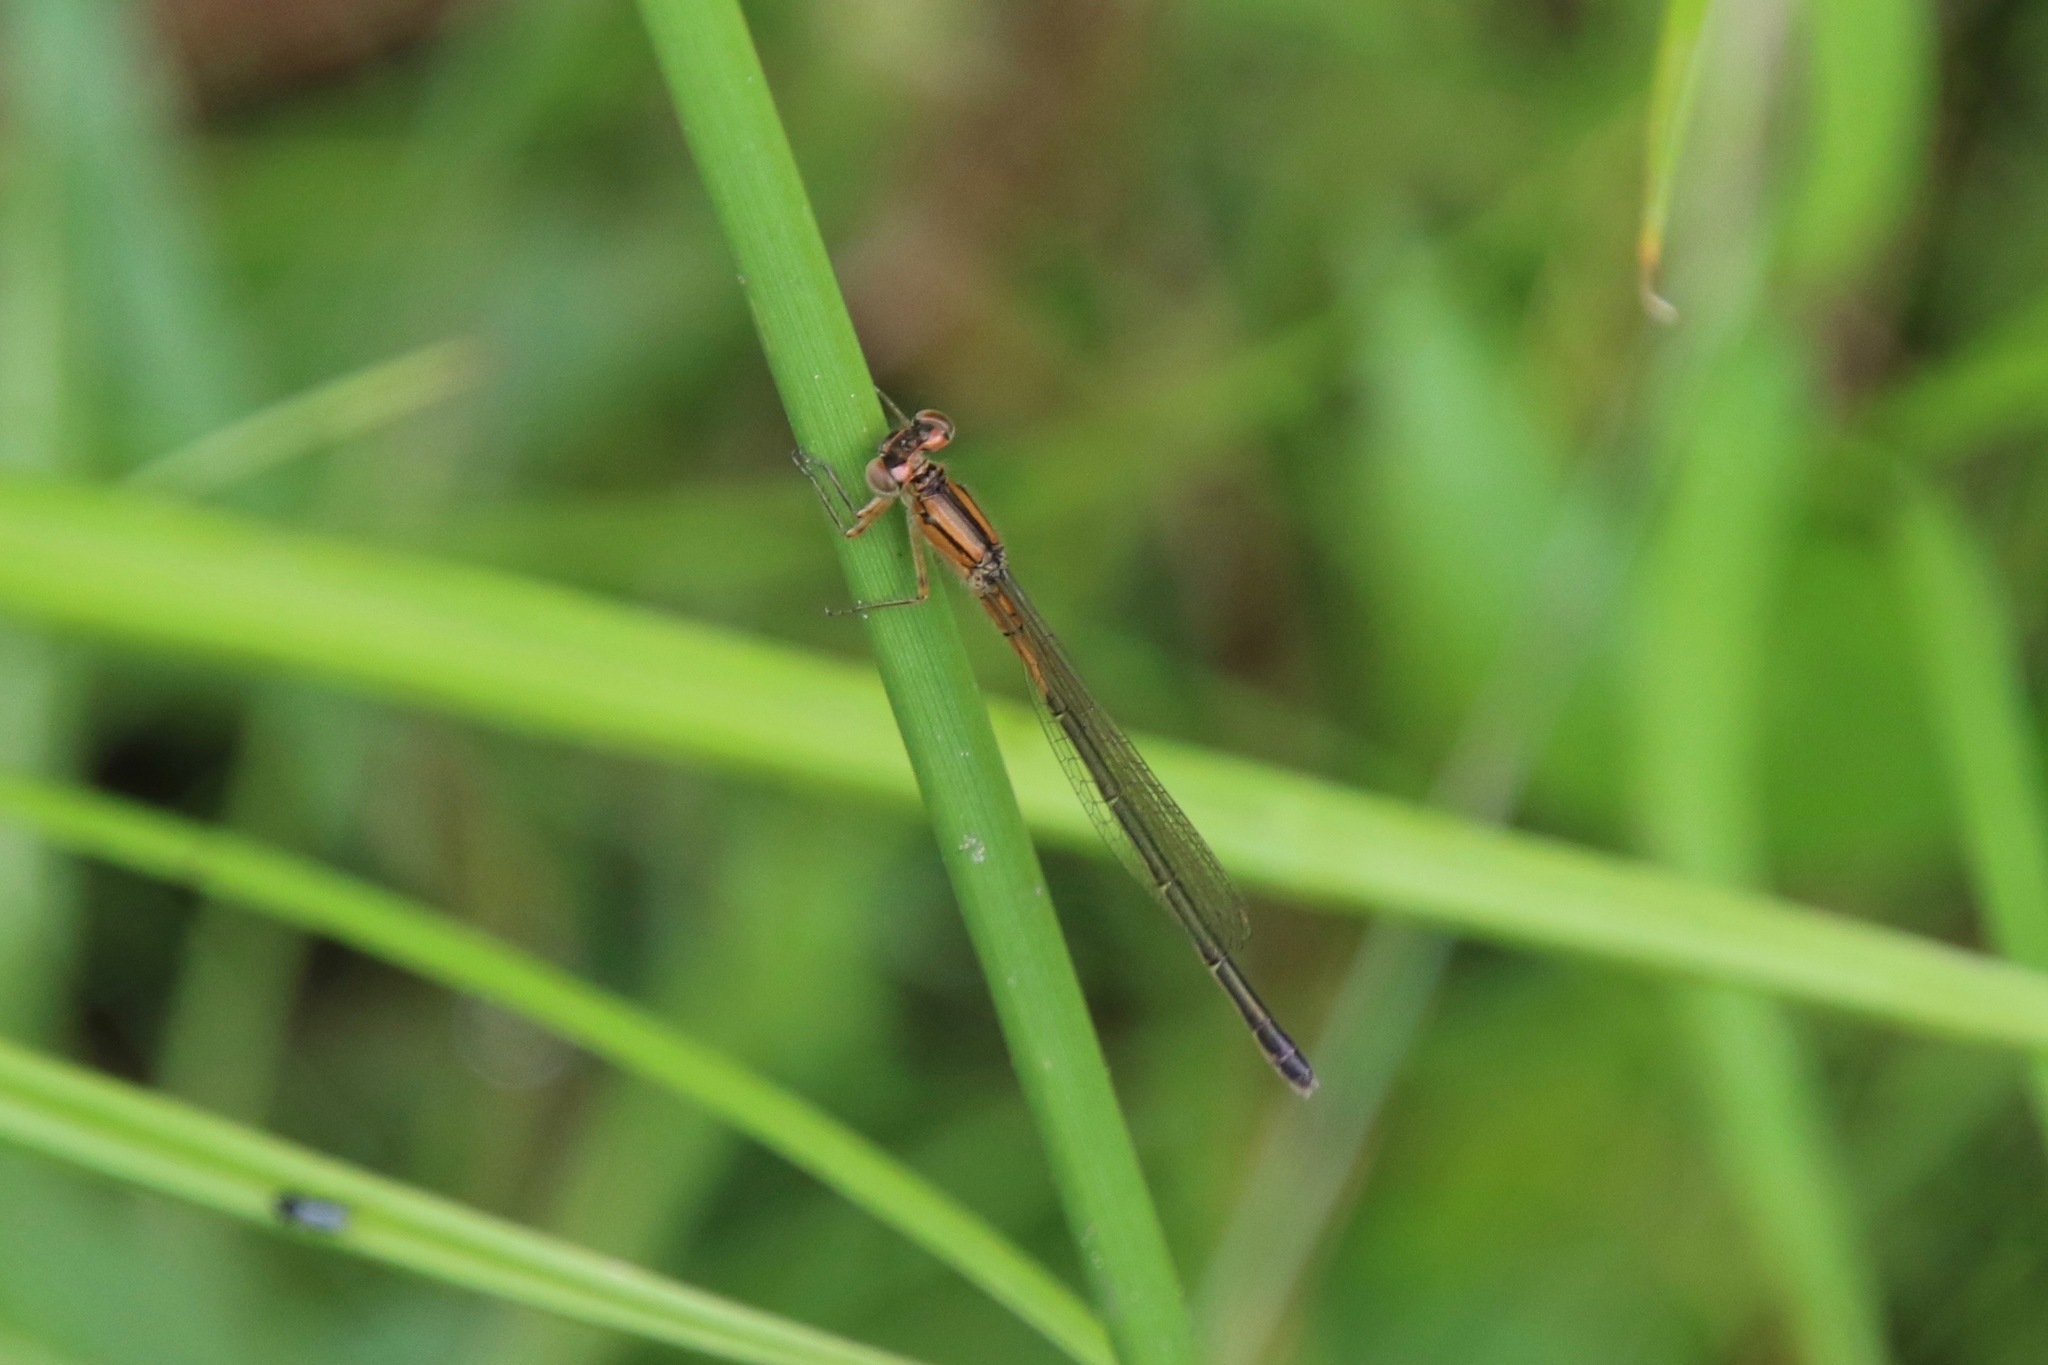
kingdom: Animalia
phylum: Arthropoda
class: Insecta
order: Odonata
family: Coenagrionidae
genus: Ischnura
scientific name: Ischnura verticalis
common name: Eastern forktail
